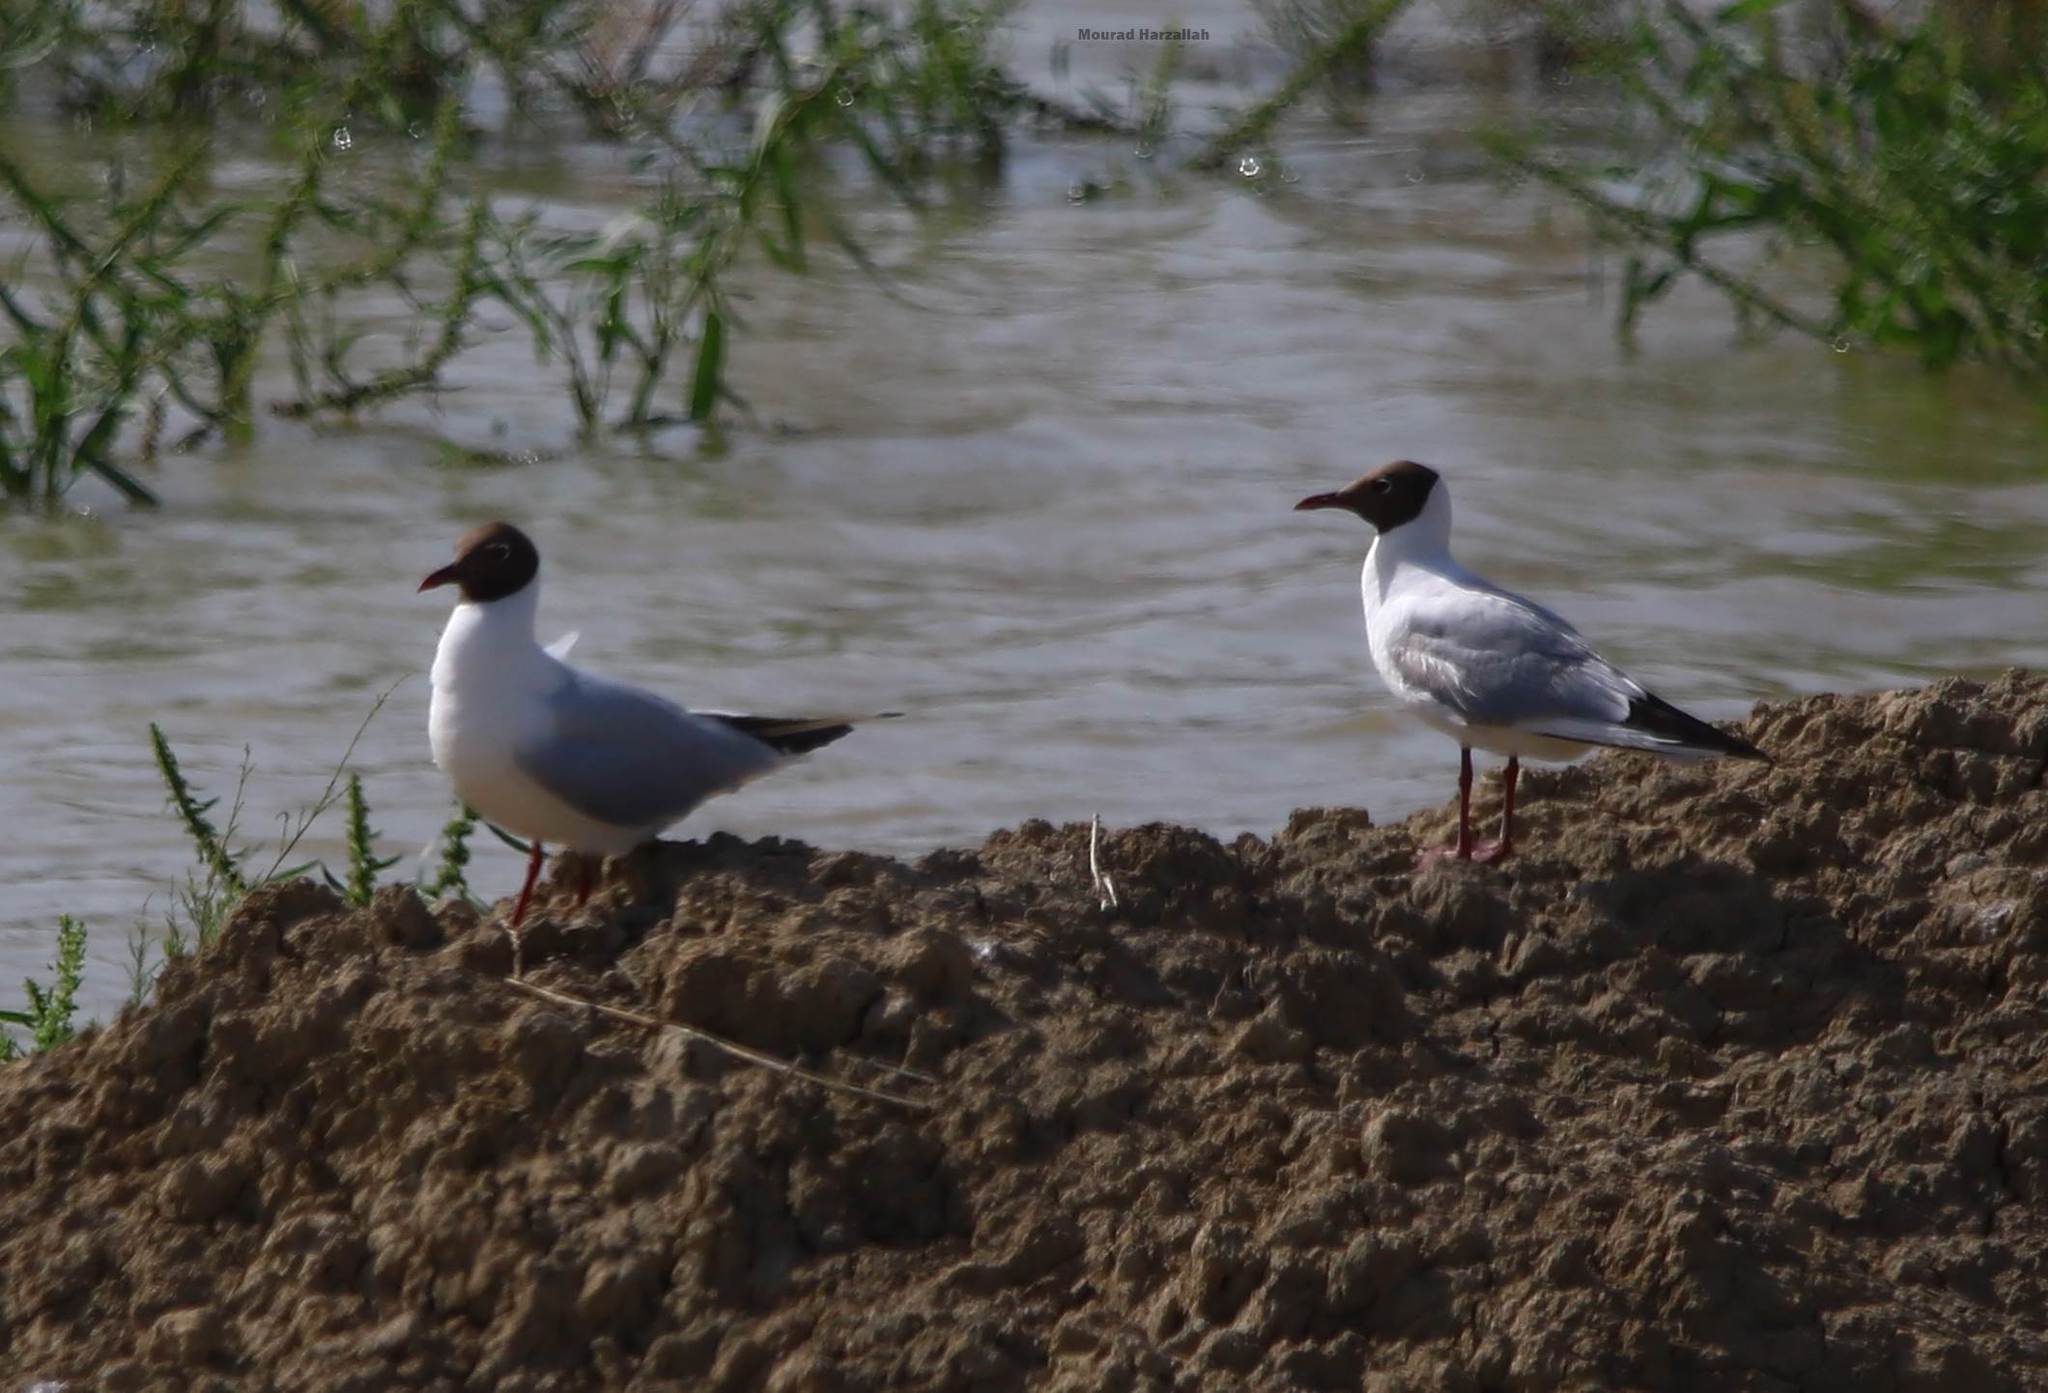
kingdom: Animalia
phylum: Chordata
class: Aves
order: Charadriiformes
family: Laridae
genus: Chroicocephalus
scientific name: Chroicocephalus ridibundus
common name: Black-headed gull
